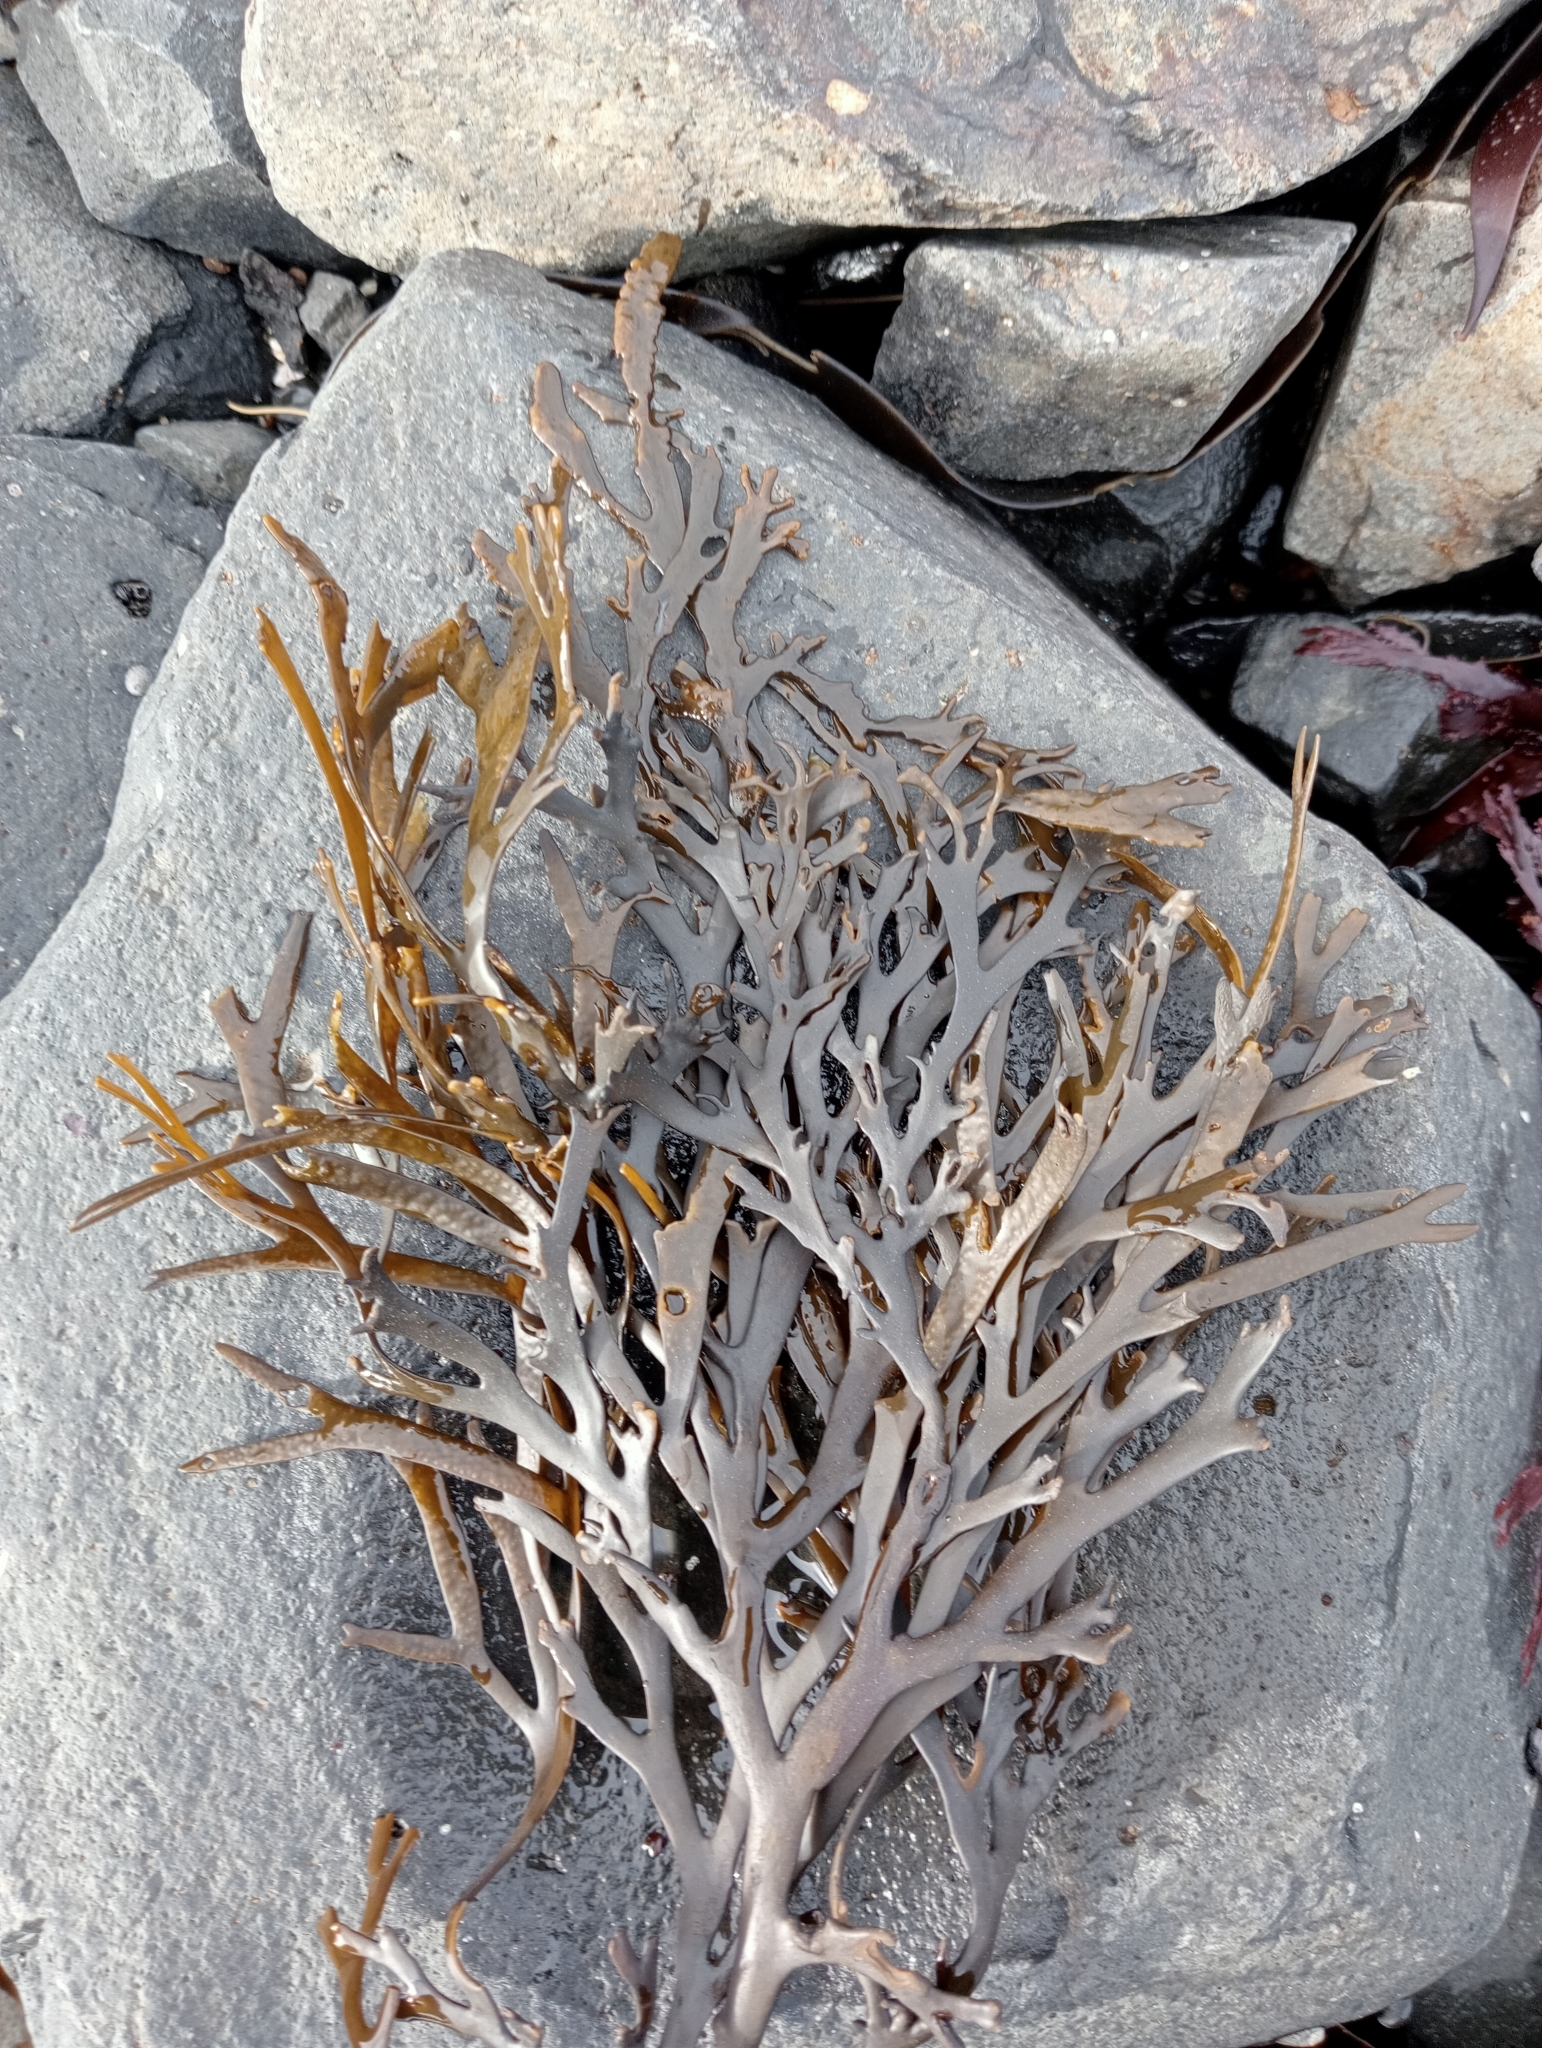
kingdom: Chromista
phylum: Ochrophyta
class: Phaeophyceae
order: Fucales
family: Xiphophoraceae
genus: Xiphophora
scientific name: Xiphophora gladiata
